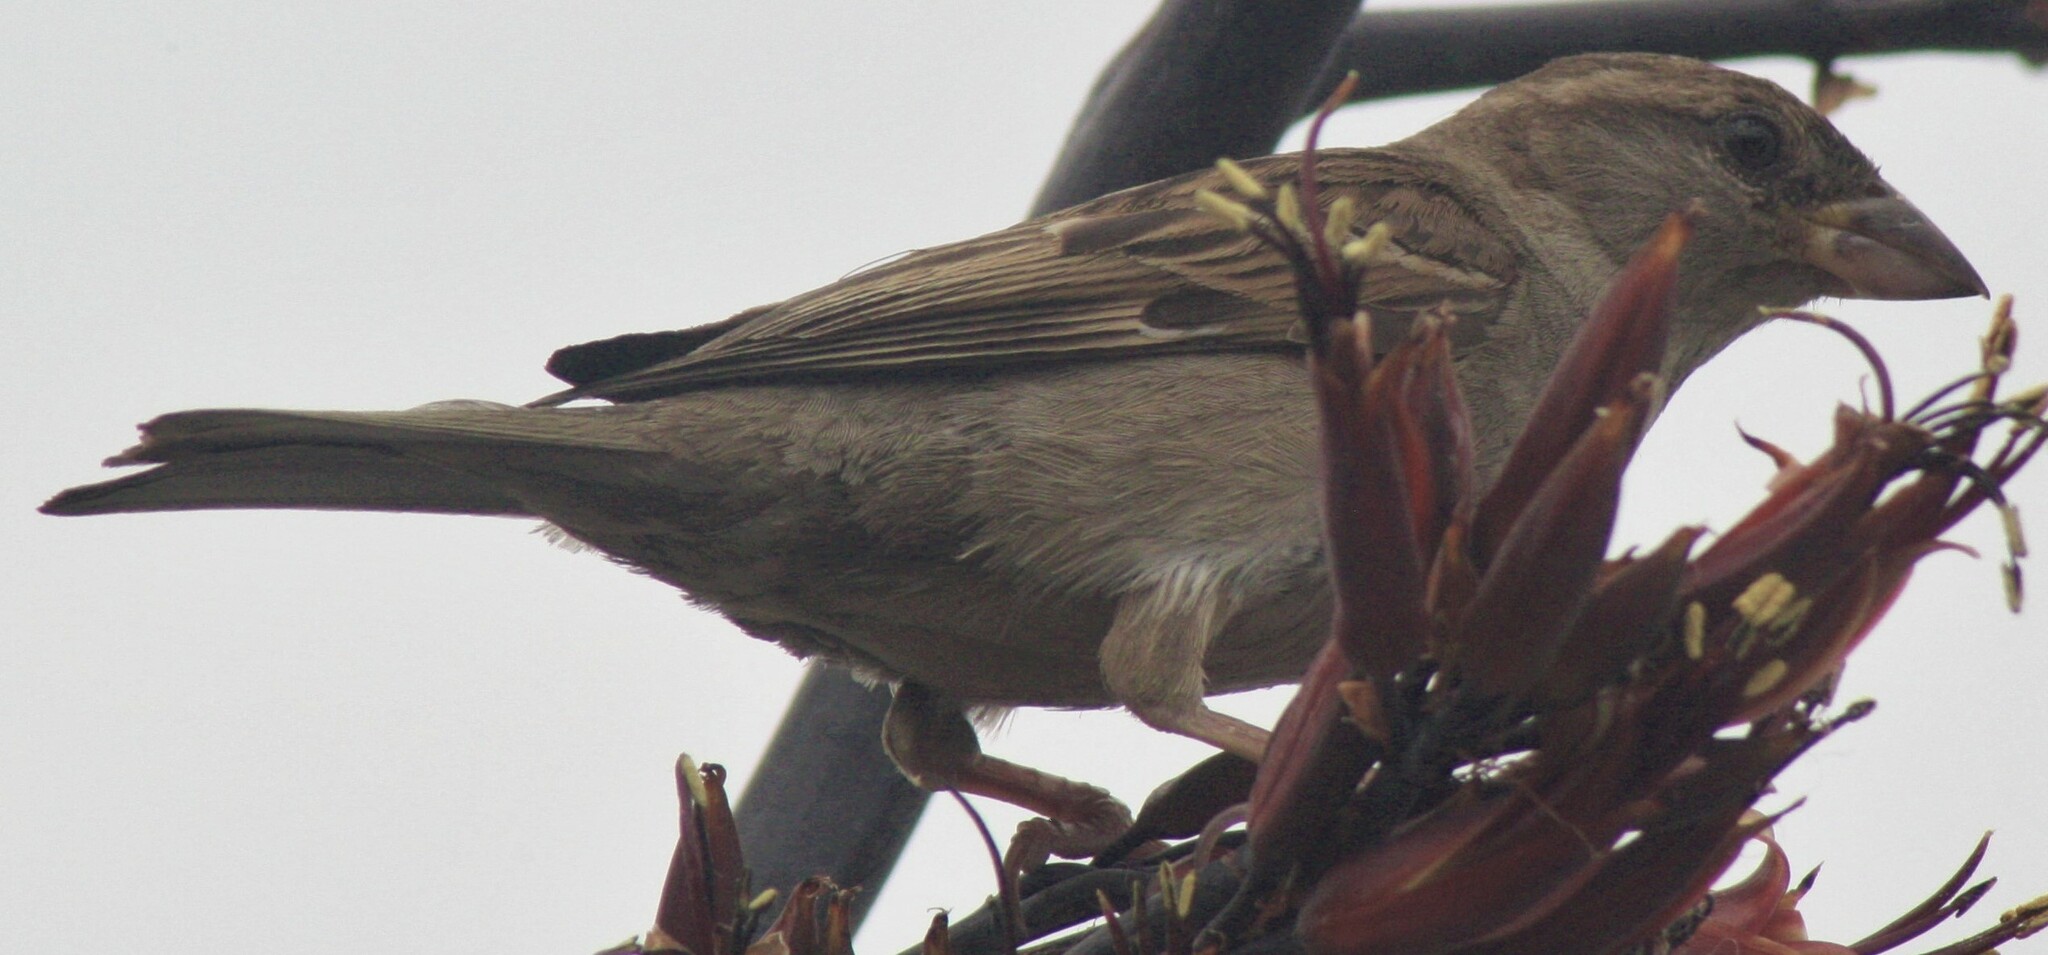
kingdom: Animalia
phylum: Chordata
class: Aves
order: Passeriformes
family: Passeridae
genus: Passer
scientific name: Passer domesticus
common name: House sparrow
